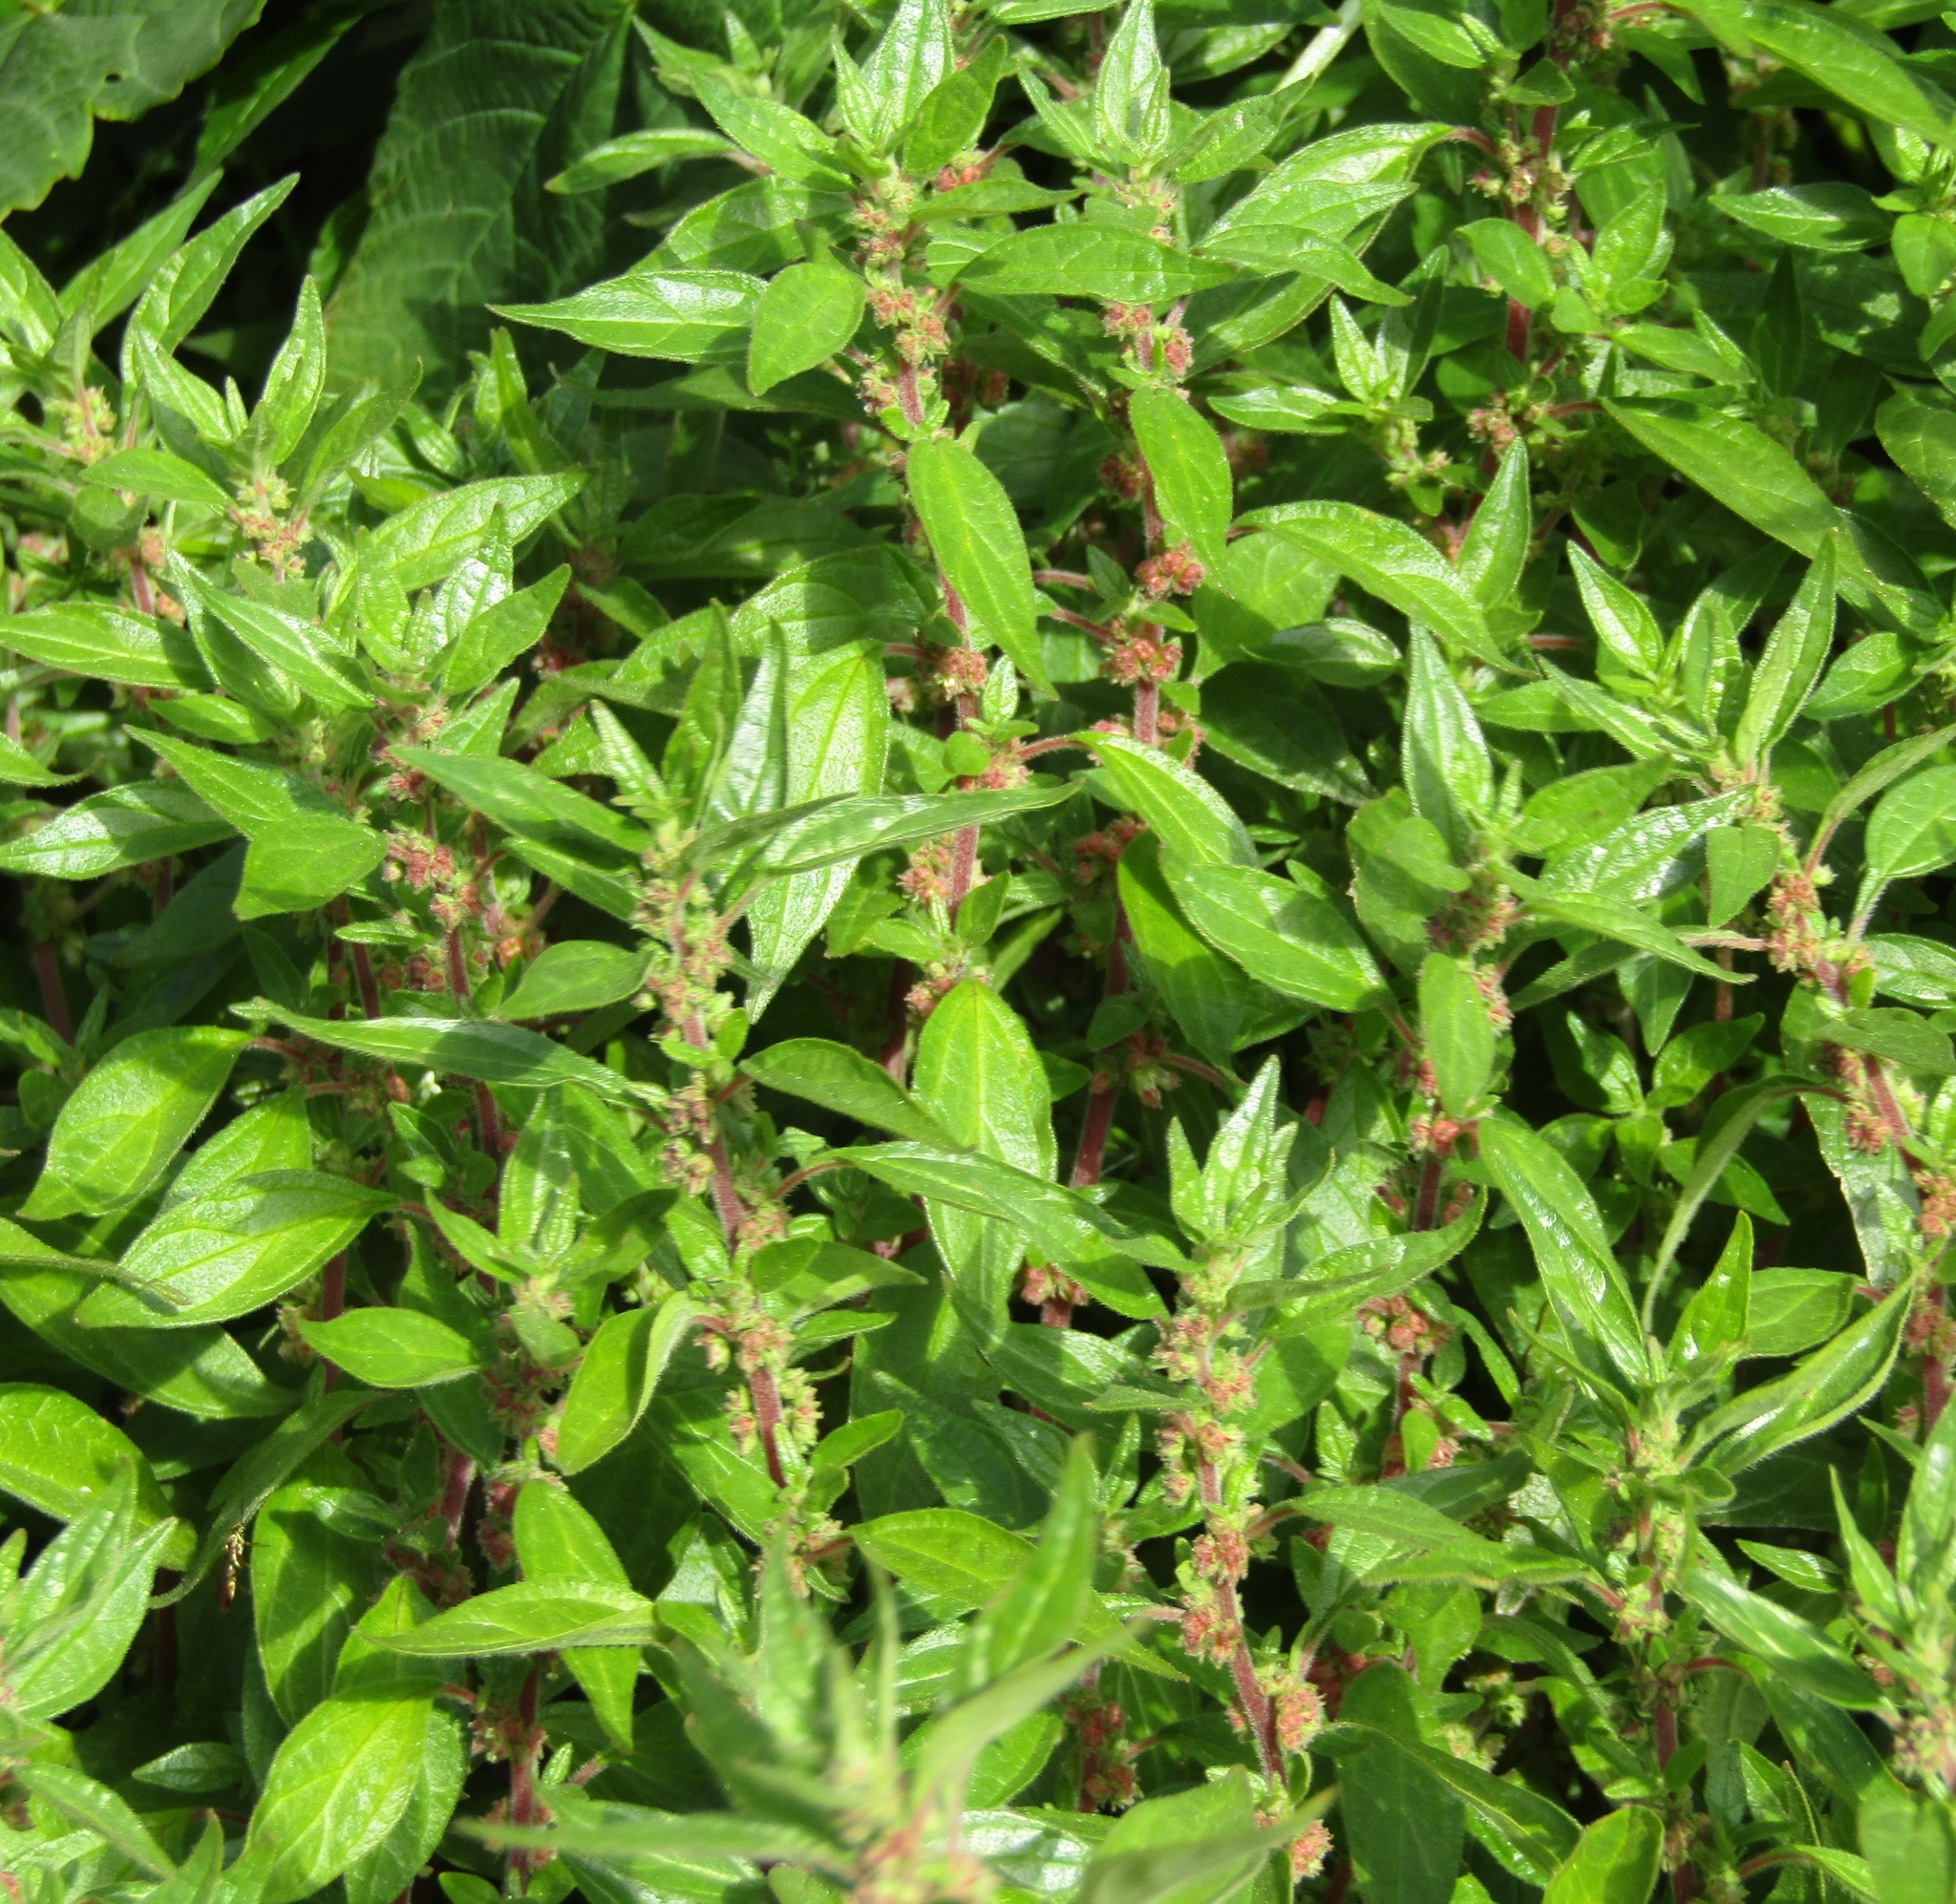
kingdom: Plantae
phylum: Tracheophyta
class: Magnoliopsida
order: Rosales
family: Urticaceae
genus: Parietaria
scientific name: Parietaria officinalis
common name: Eastern pellitory-of-the-wall
